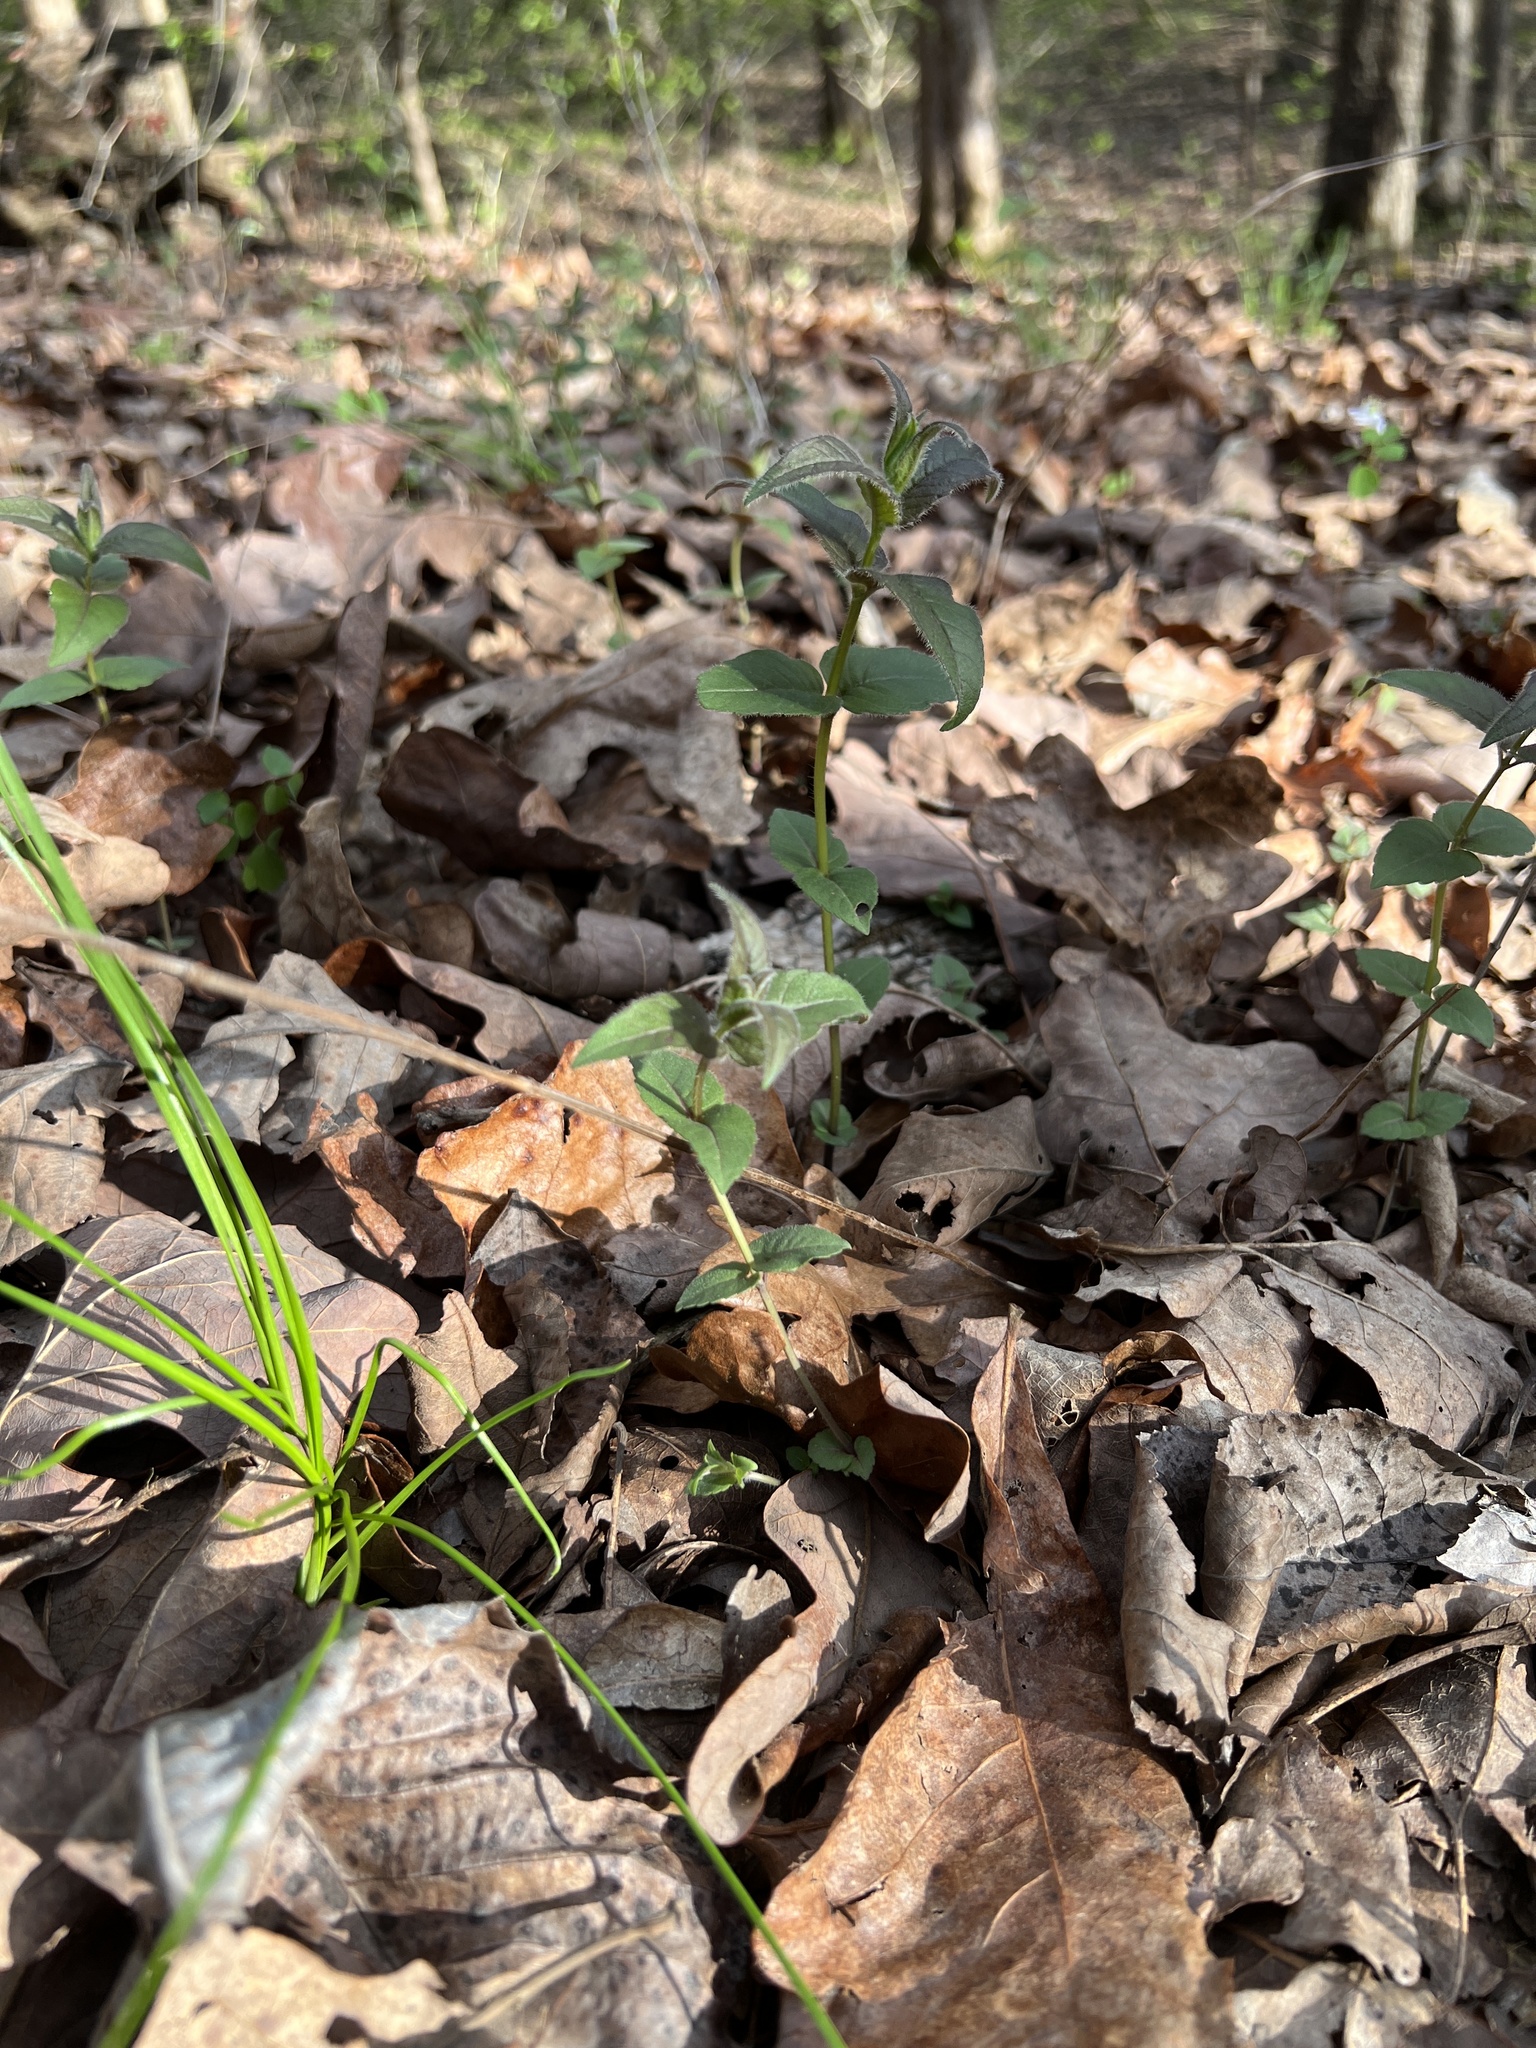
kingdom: Plantae
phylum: Tracheophyta
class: Magnoliopsida
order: Lamiales
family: Lamiaceae
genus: Monarda
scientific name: Monarda bradburiana
